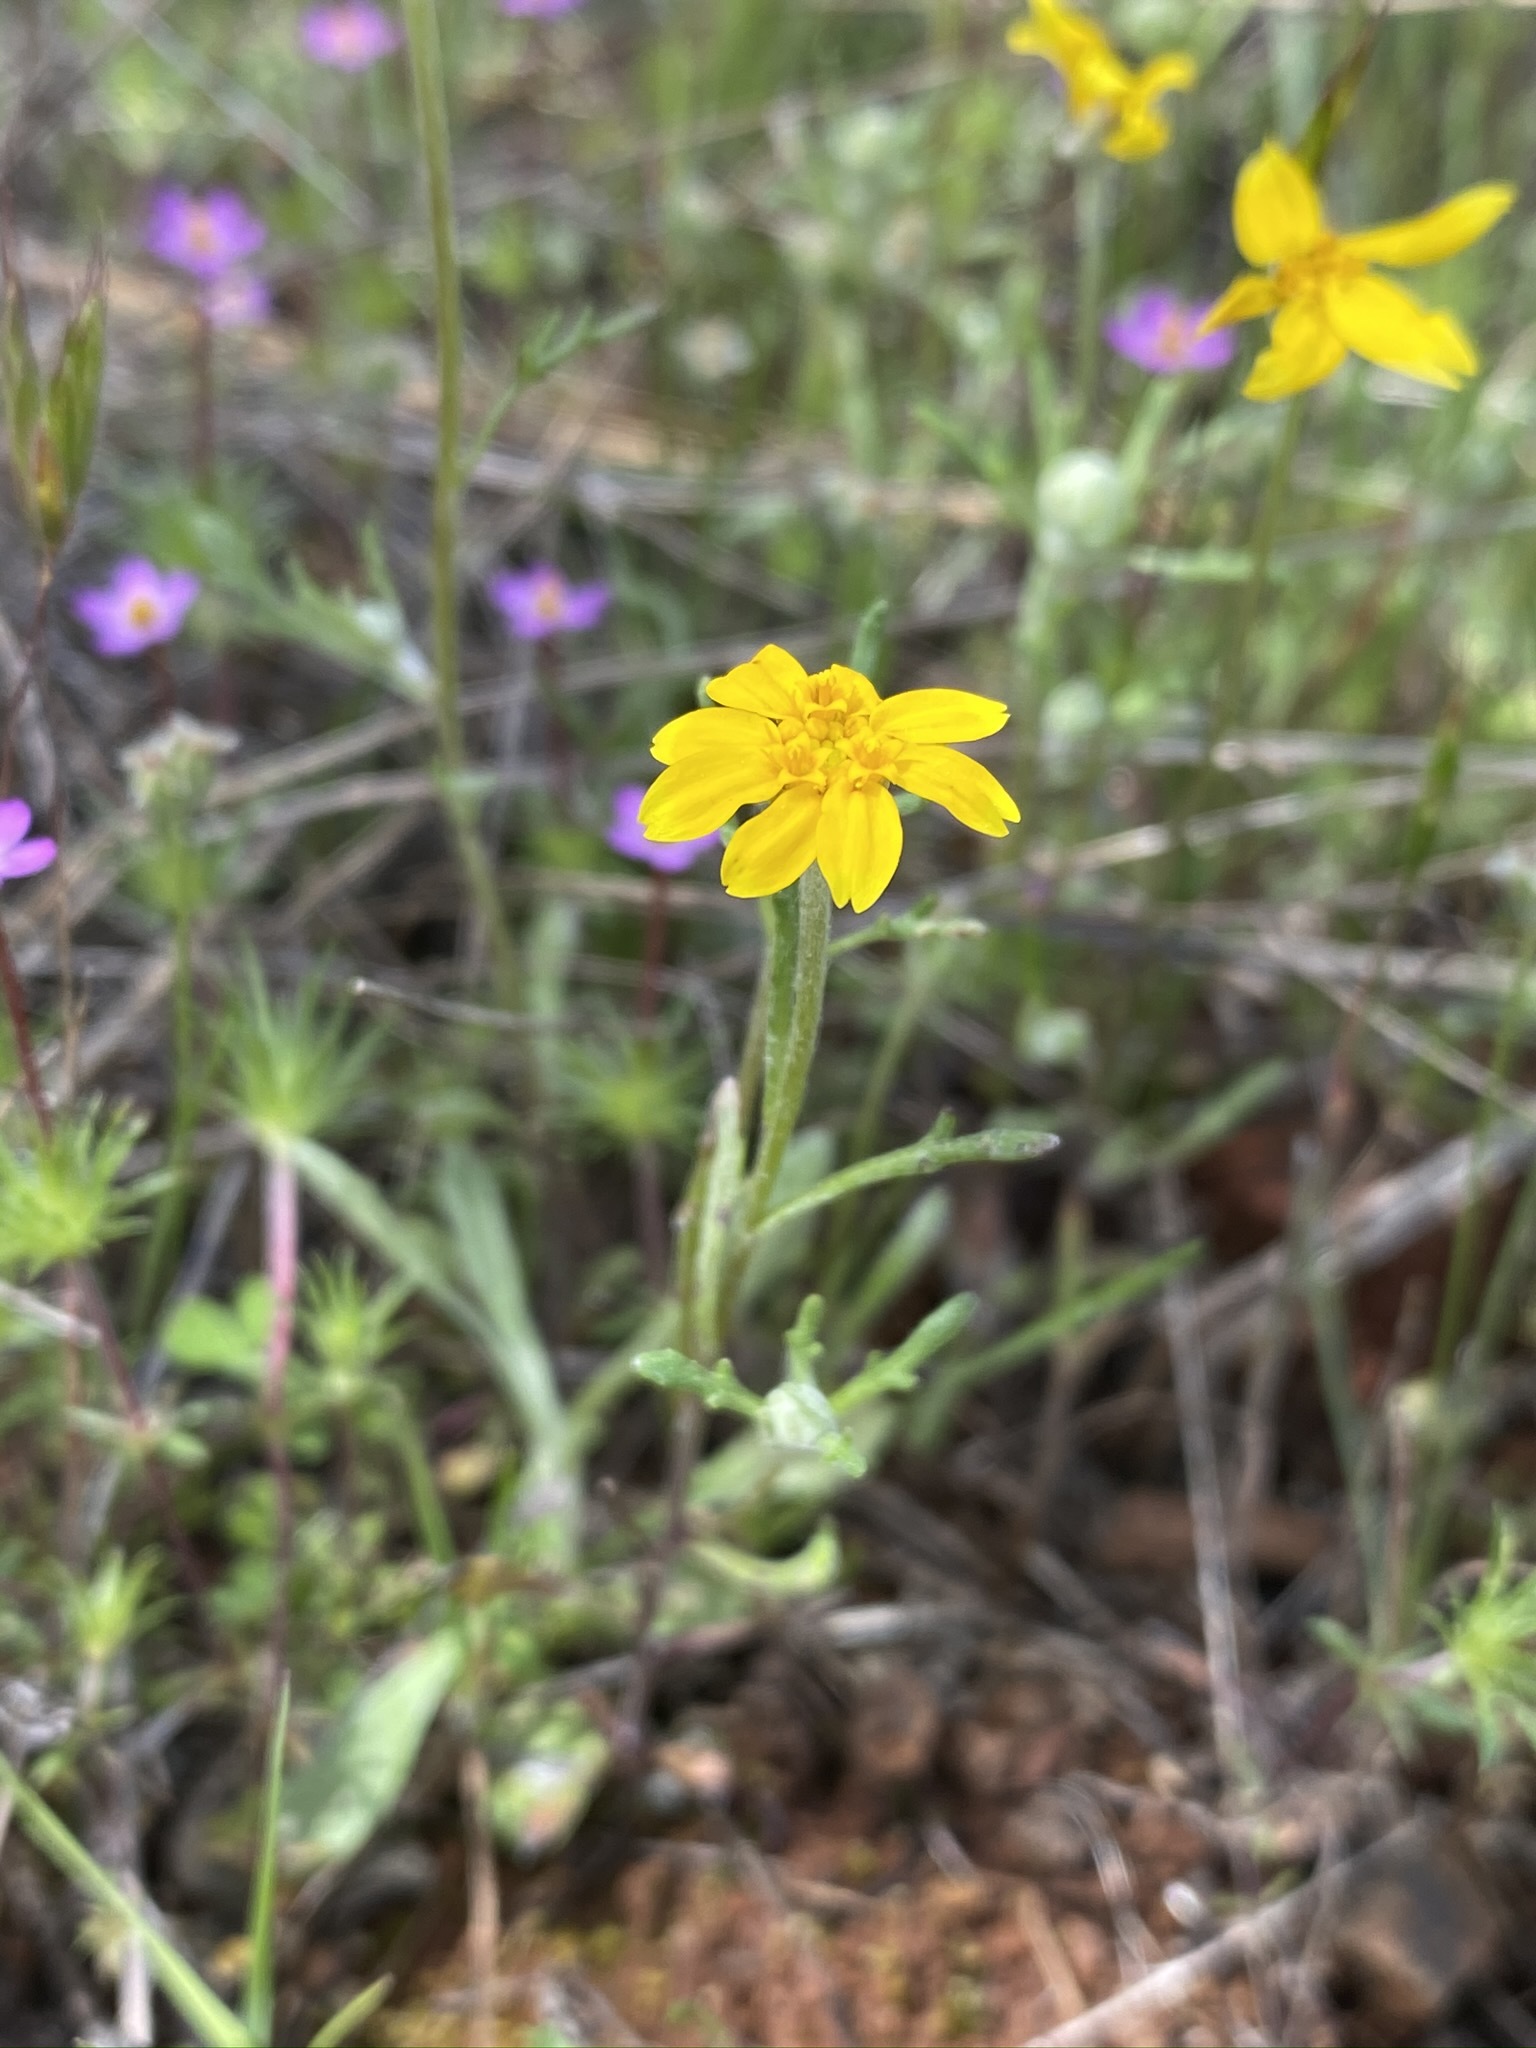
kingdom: Plantae
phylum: Tracheophyta
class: Magnoliopsida
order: Asterales
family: Asteraceae
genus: Pseudobahia
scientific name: Pseudobahia bahiifolia
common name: Hartweg's golden sunburst
